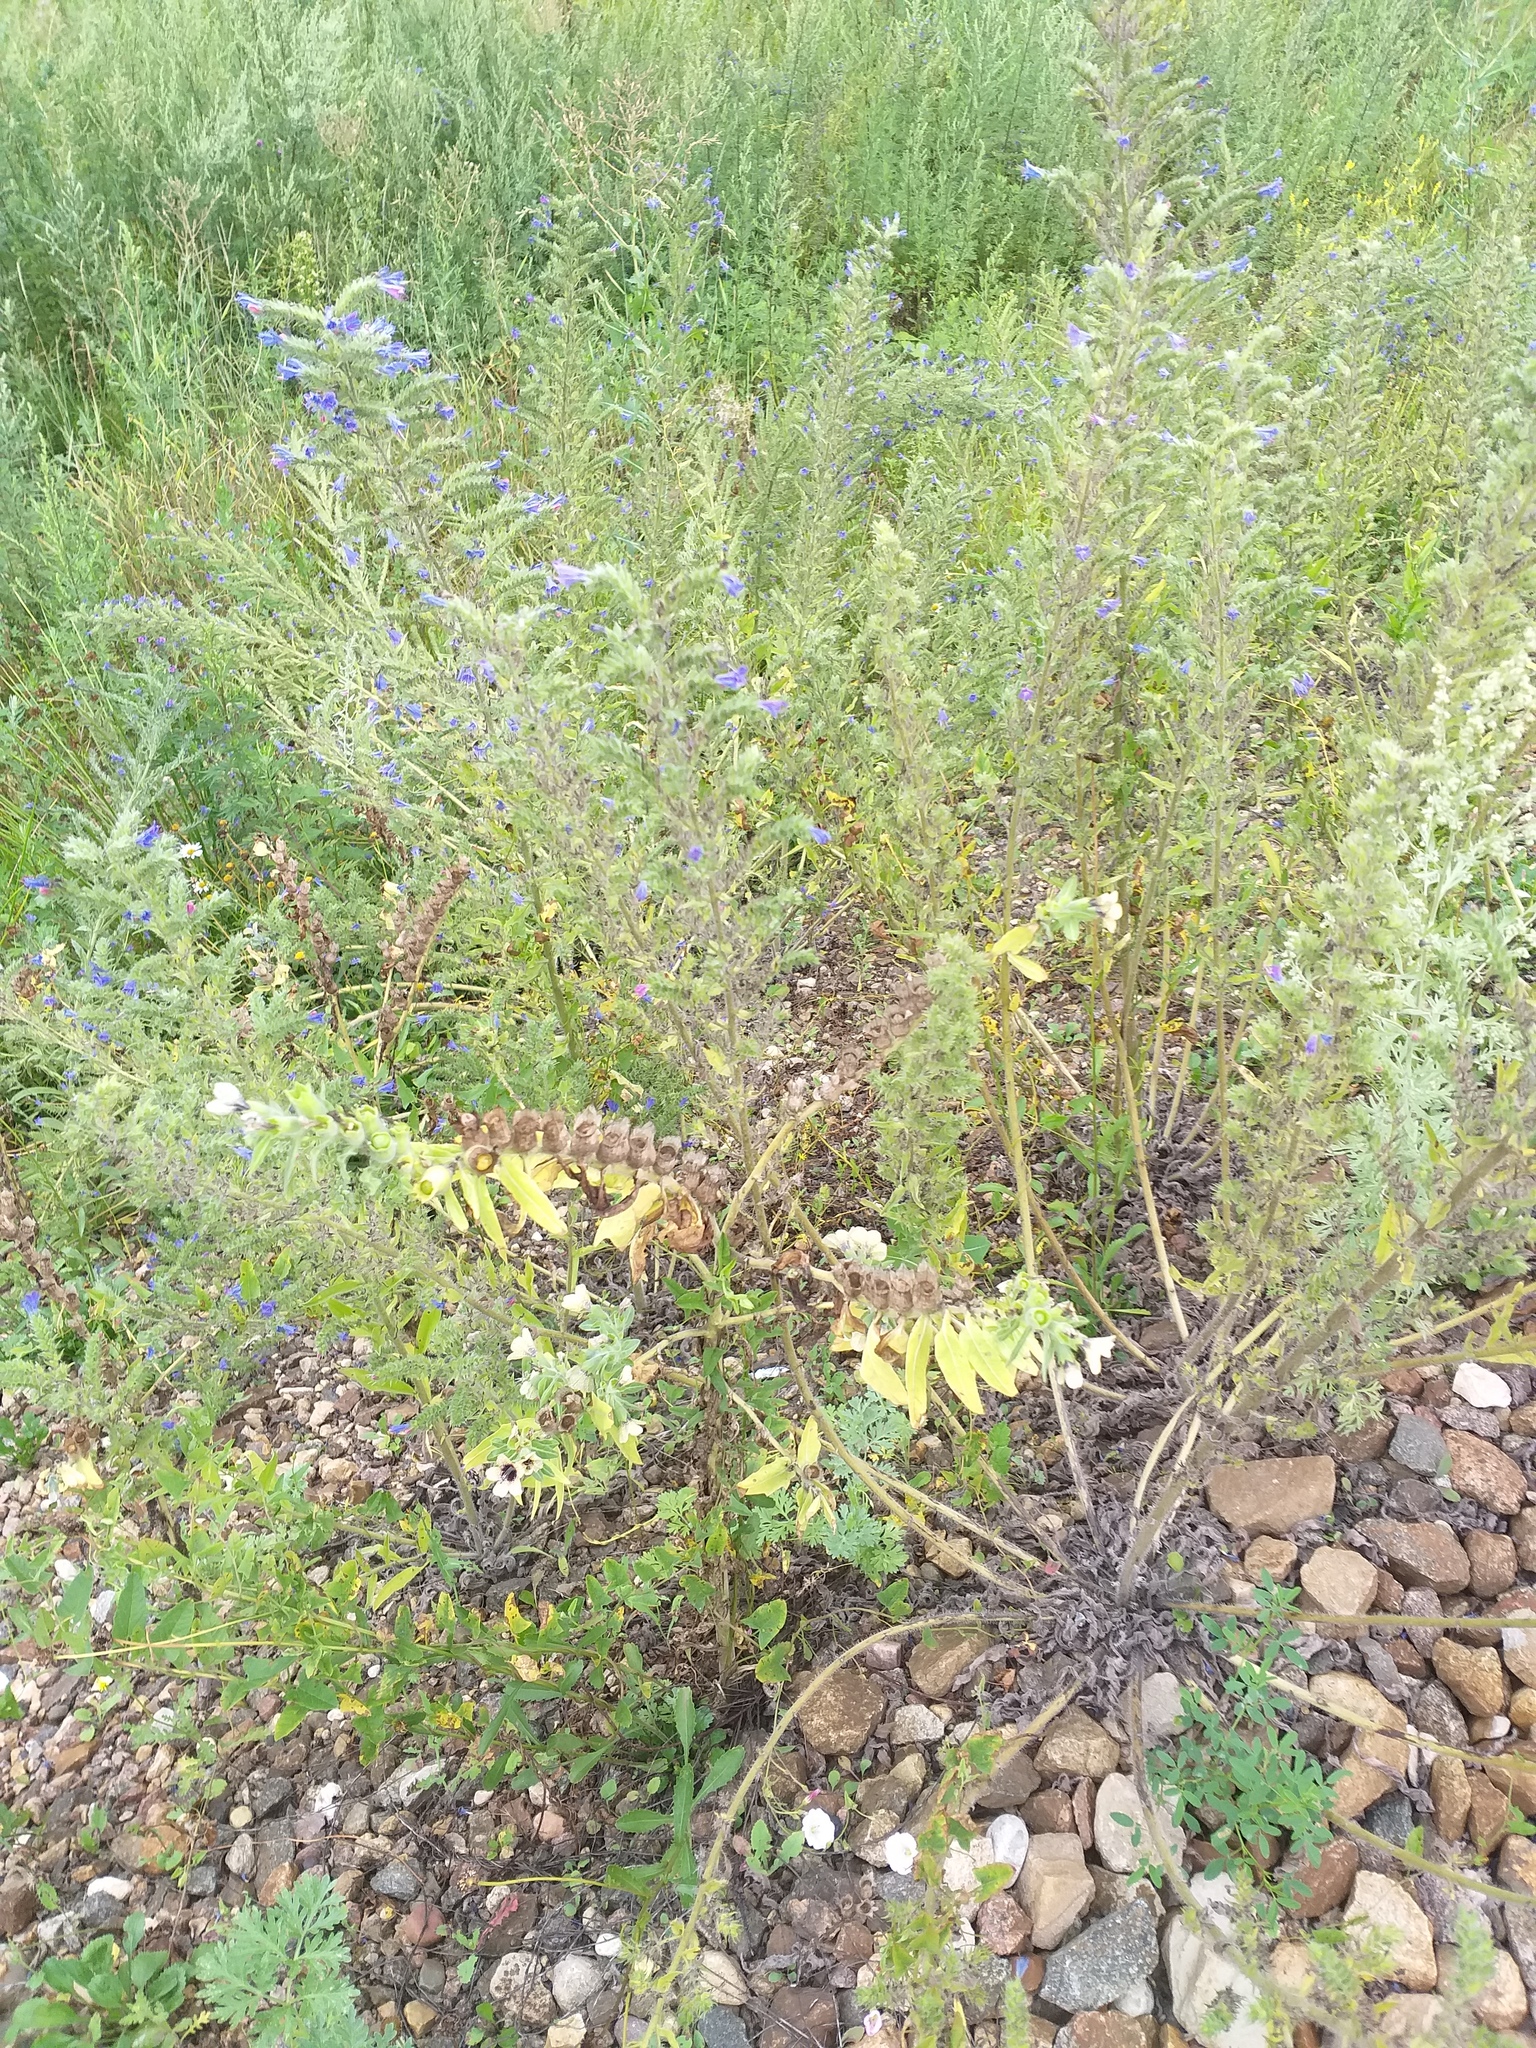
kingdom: Plantae
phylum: Tracheophyta
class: Magnoliopsida
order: Solanales
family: Solanaceae
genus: Hyoscyamus
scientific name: Hyoscyamus niger
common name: Henbane
